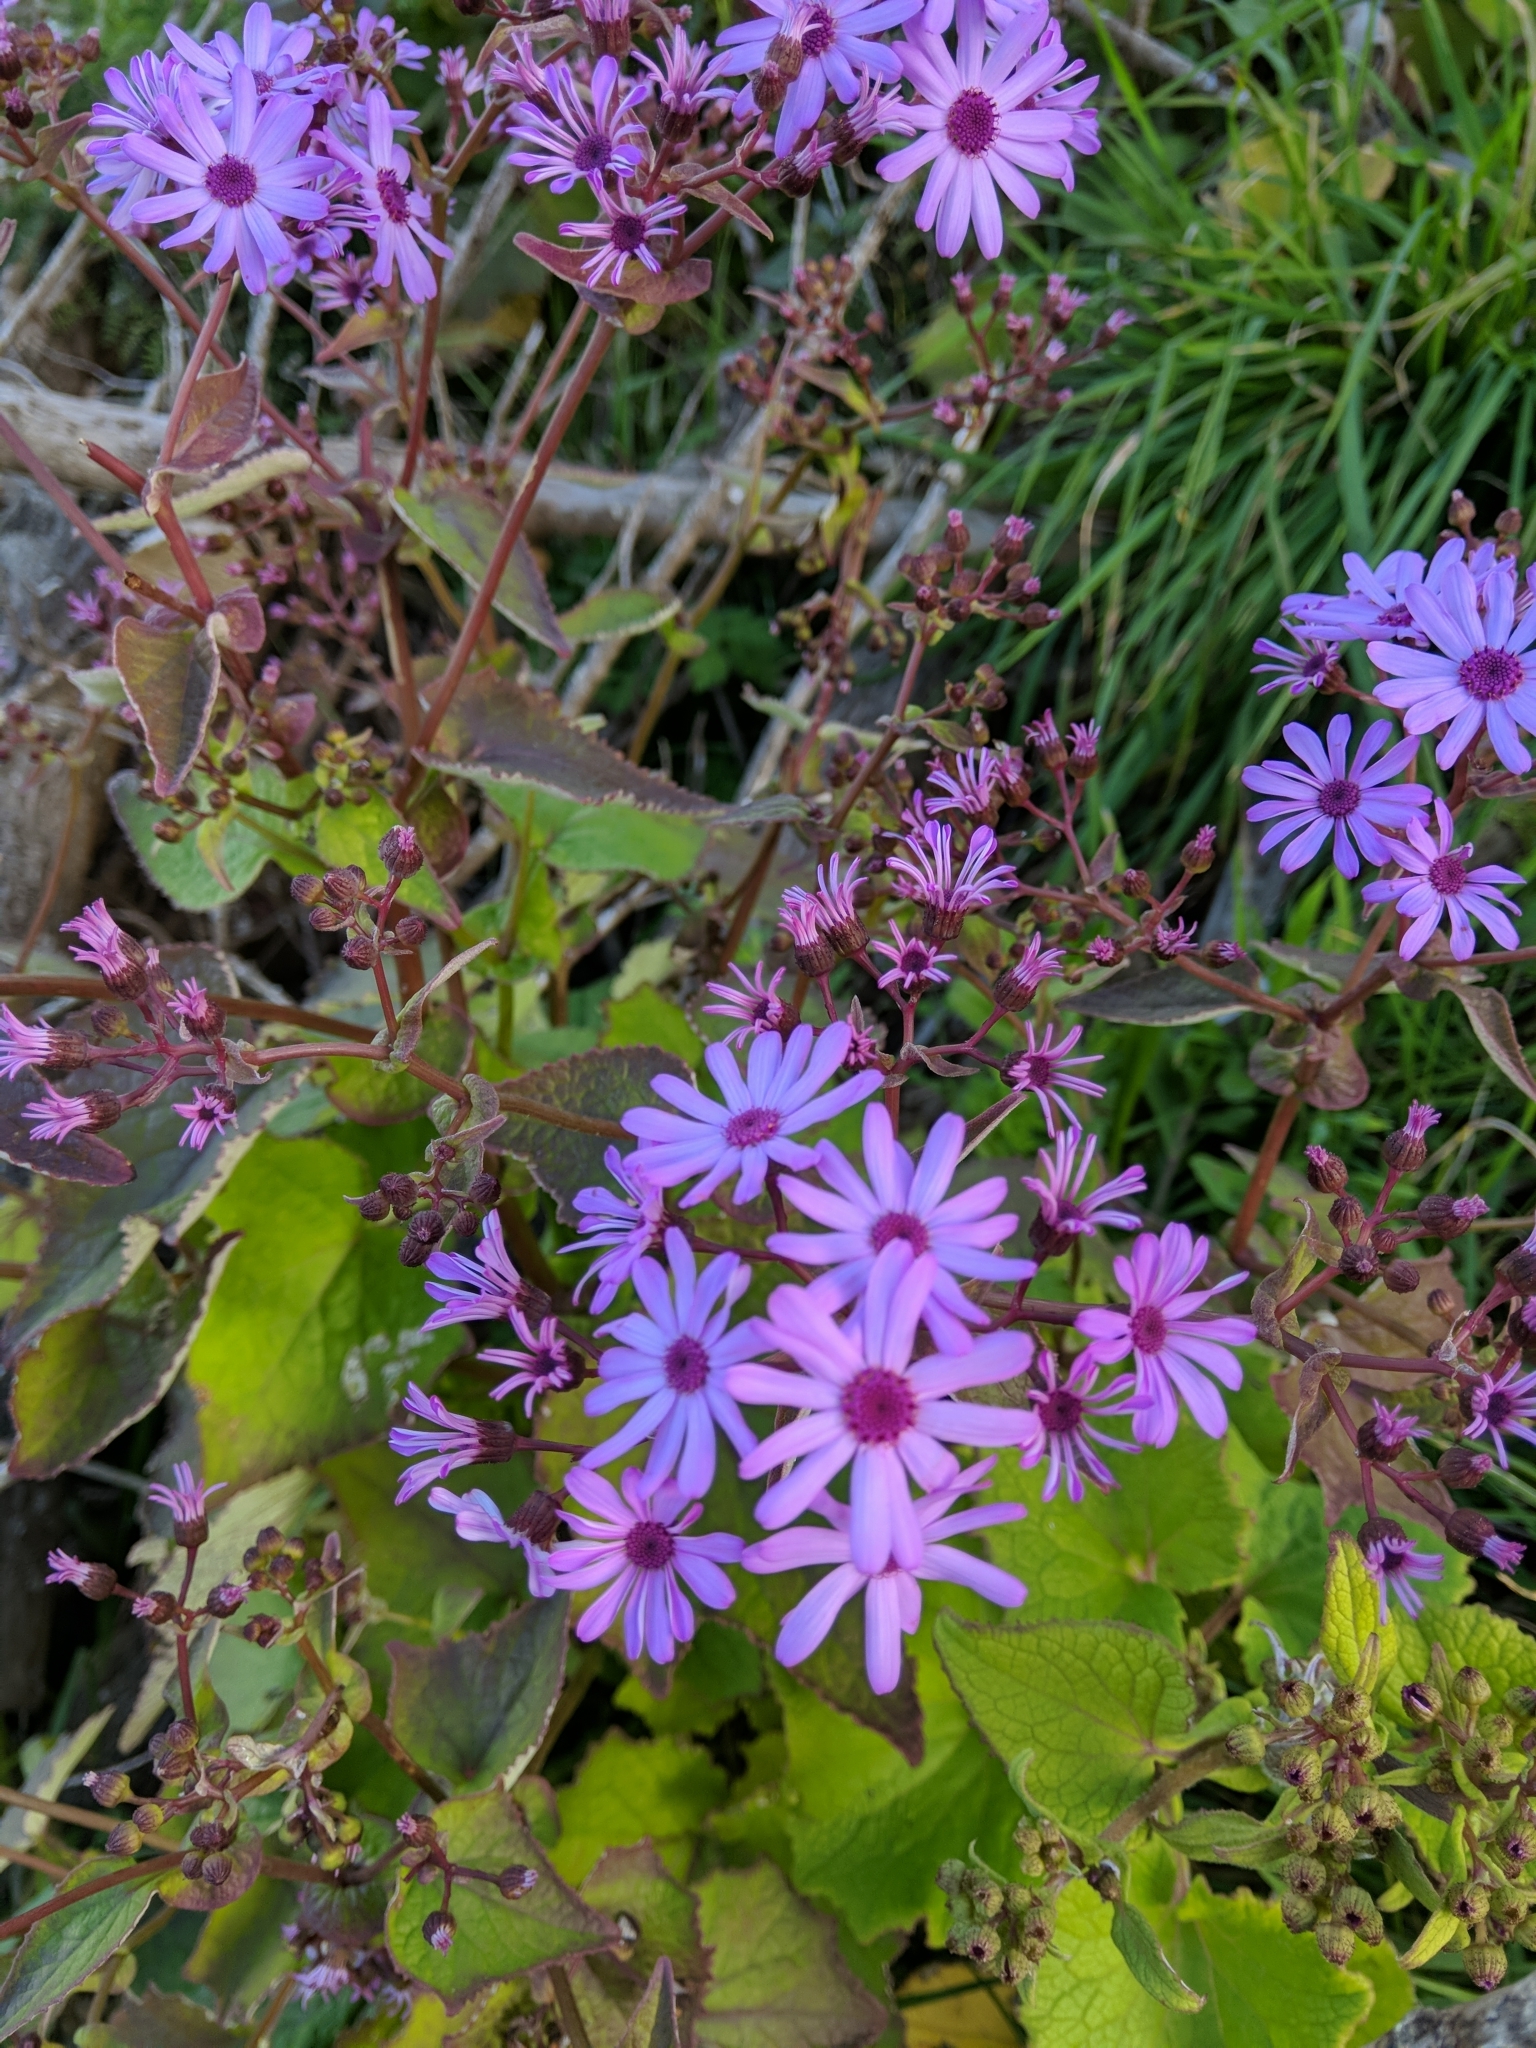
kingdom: Plantae
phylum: Tracheophyta
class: Magnoliopsida
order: Asterales
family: Asteraceae
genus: Pericallis
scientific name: Pericallis hybrida
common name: Cineraria
